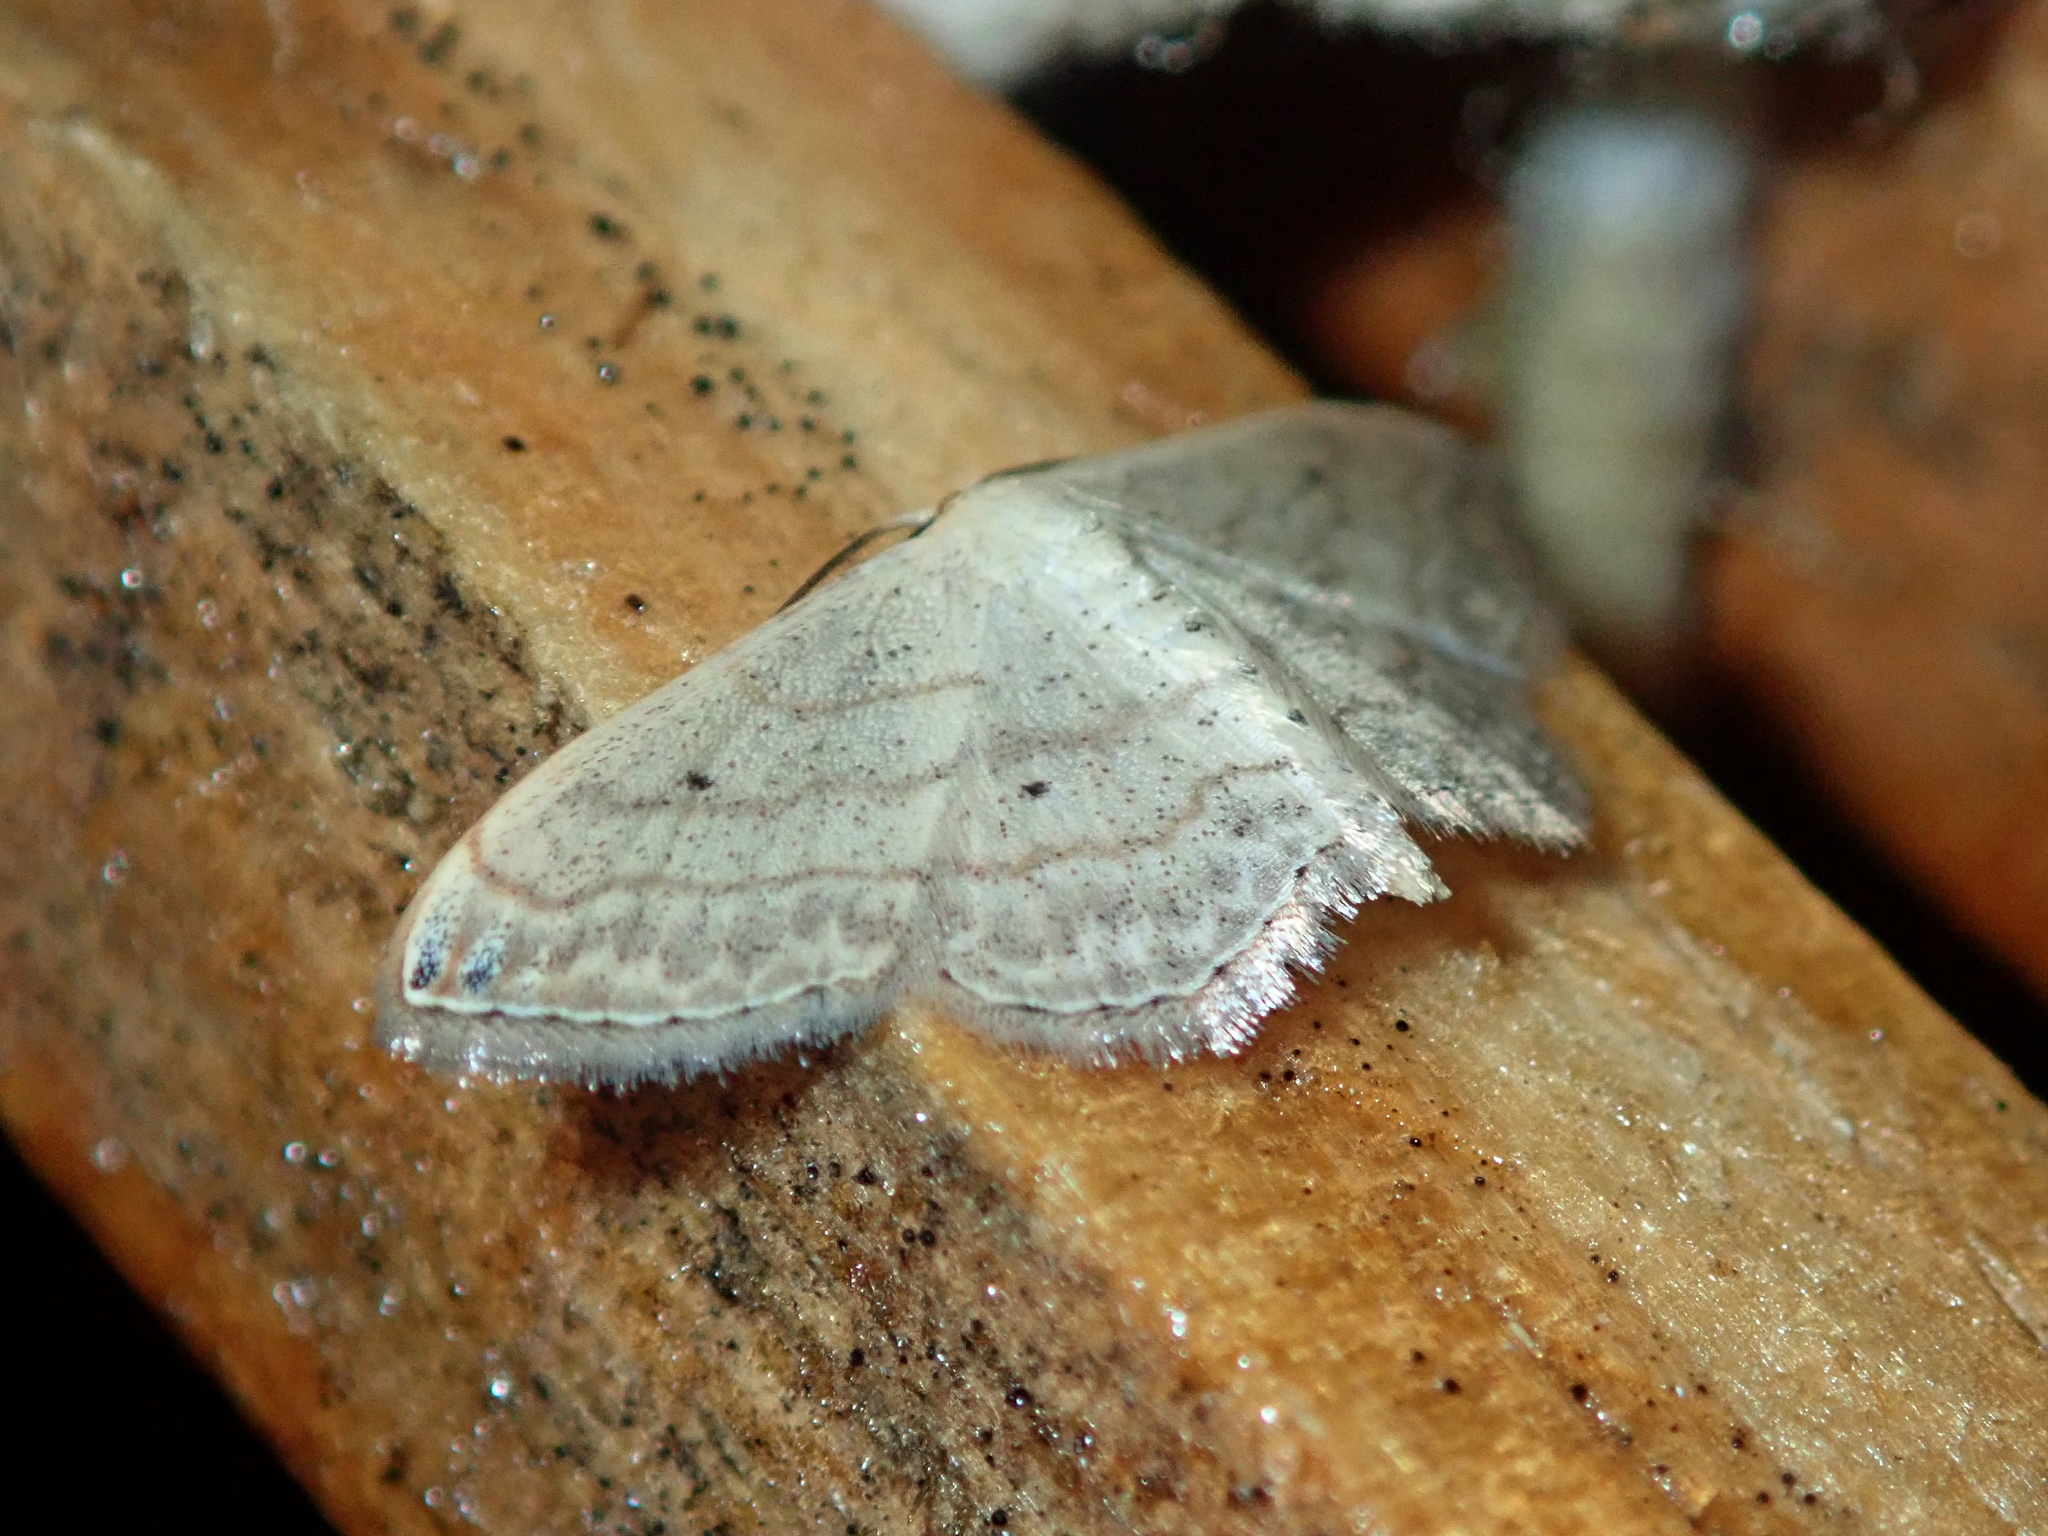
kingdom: Animalia
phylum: Arthropoda
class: Insecta
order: Lepidoptera
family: Geometridae
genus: Scopula
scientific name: Scopula umbilicata
